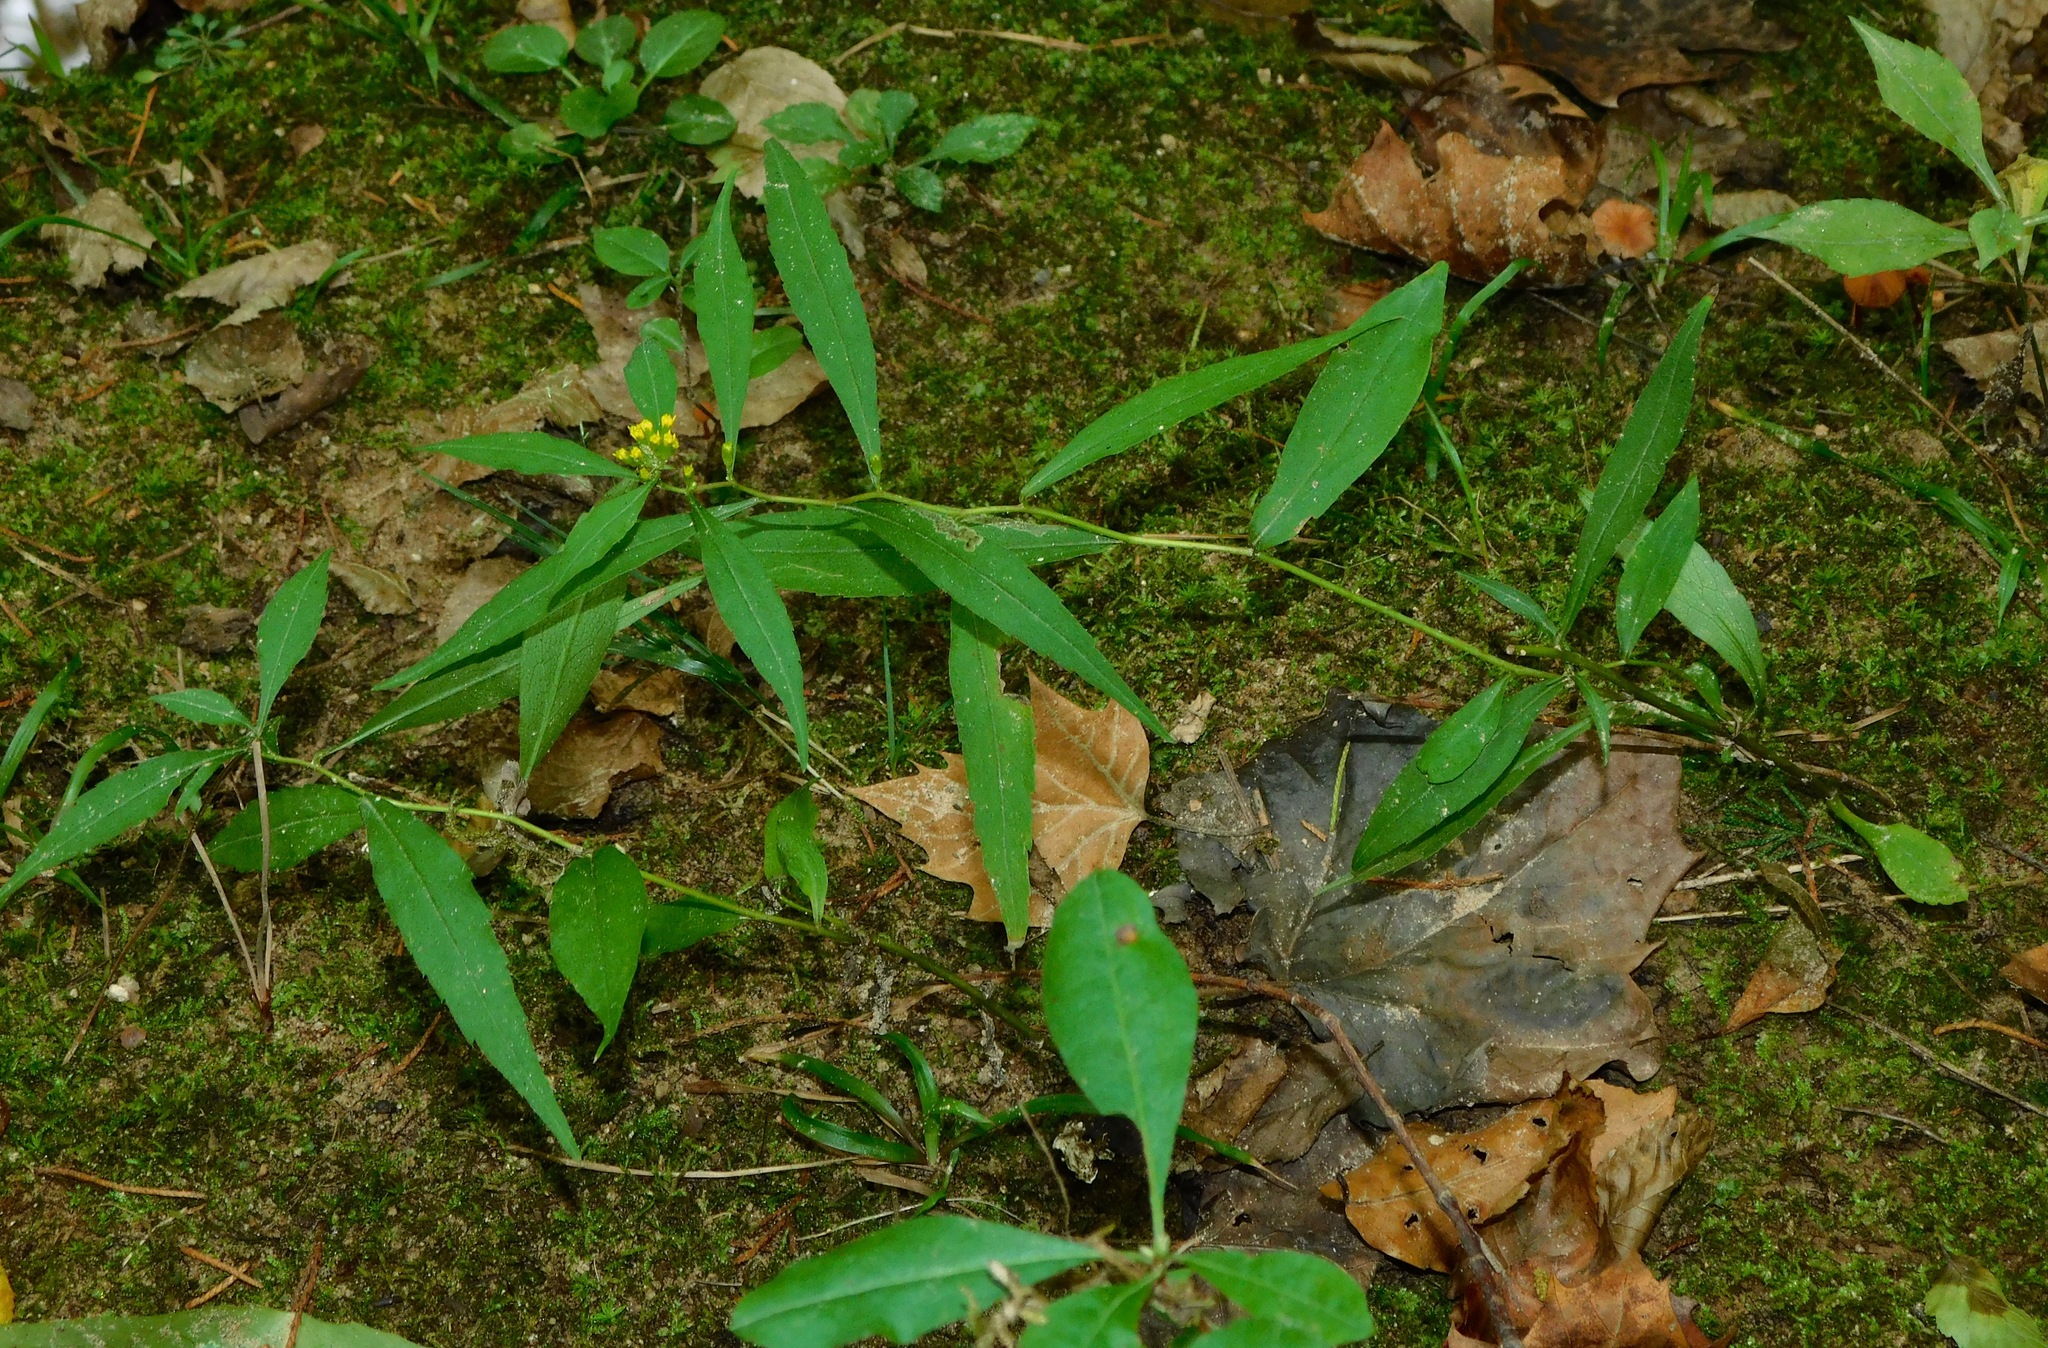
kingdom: Plantae
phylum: Tracheophyta
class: Magnoliopsida
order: Asterales
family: Asteraceae
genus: Solidago
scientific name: Solidago caesia
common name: Woodland goldenrod
